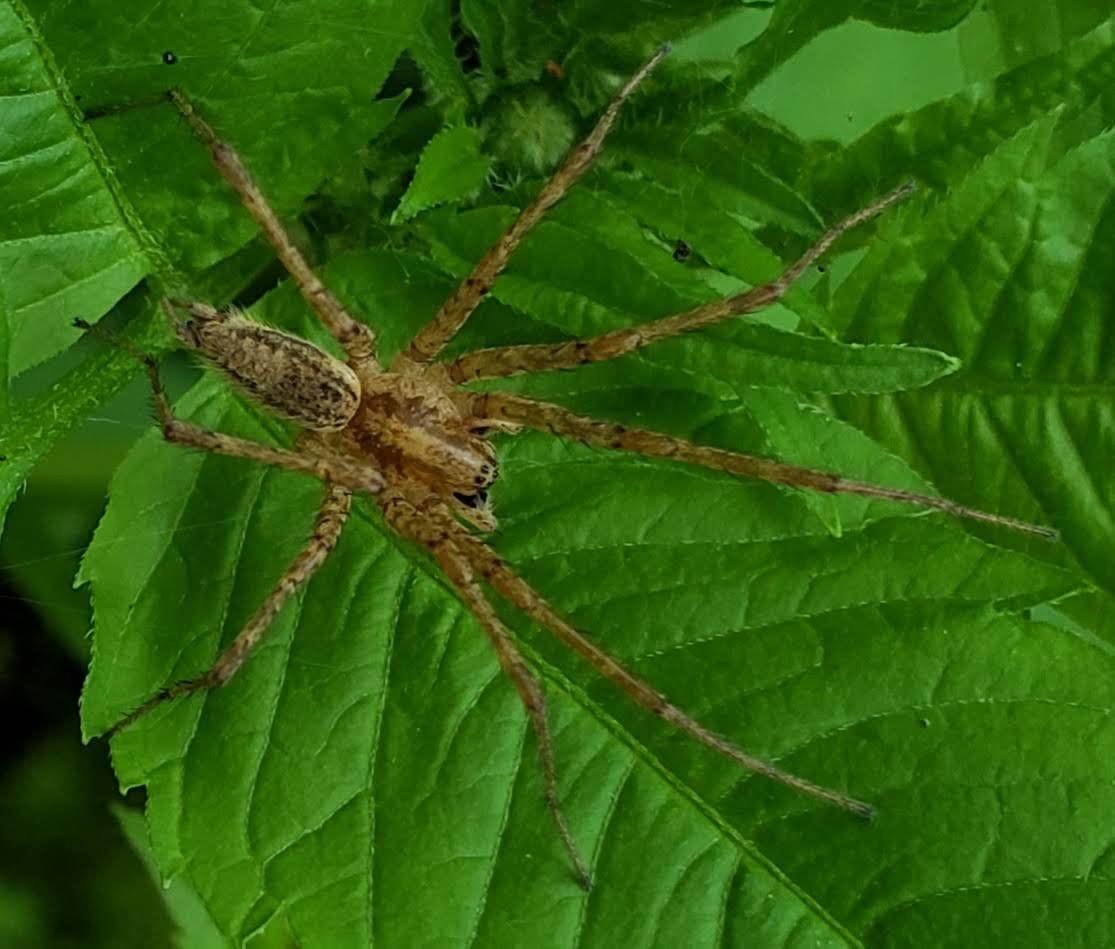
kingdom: Animalia
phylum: Arthropoda
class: Arachnida
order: Araneae
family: Agelenidae
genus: Agelenopsis
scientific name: Agelenopsis
